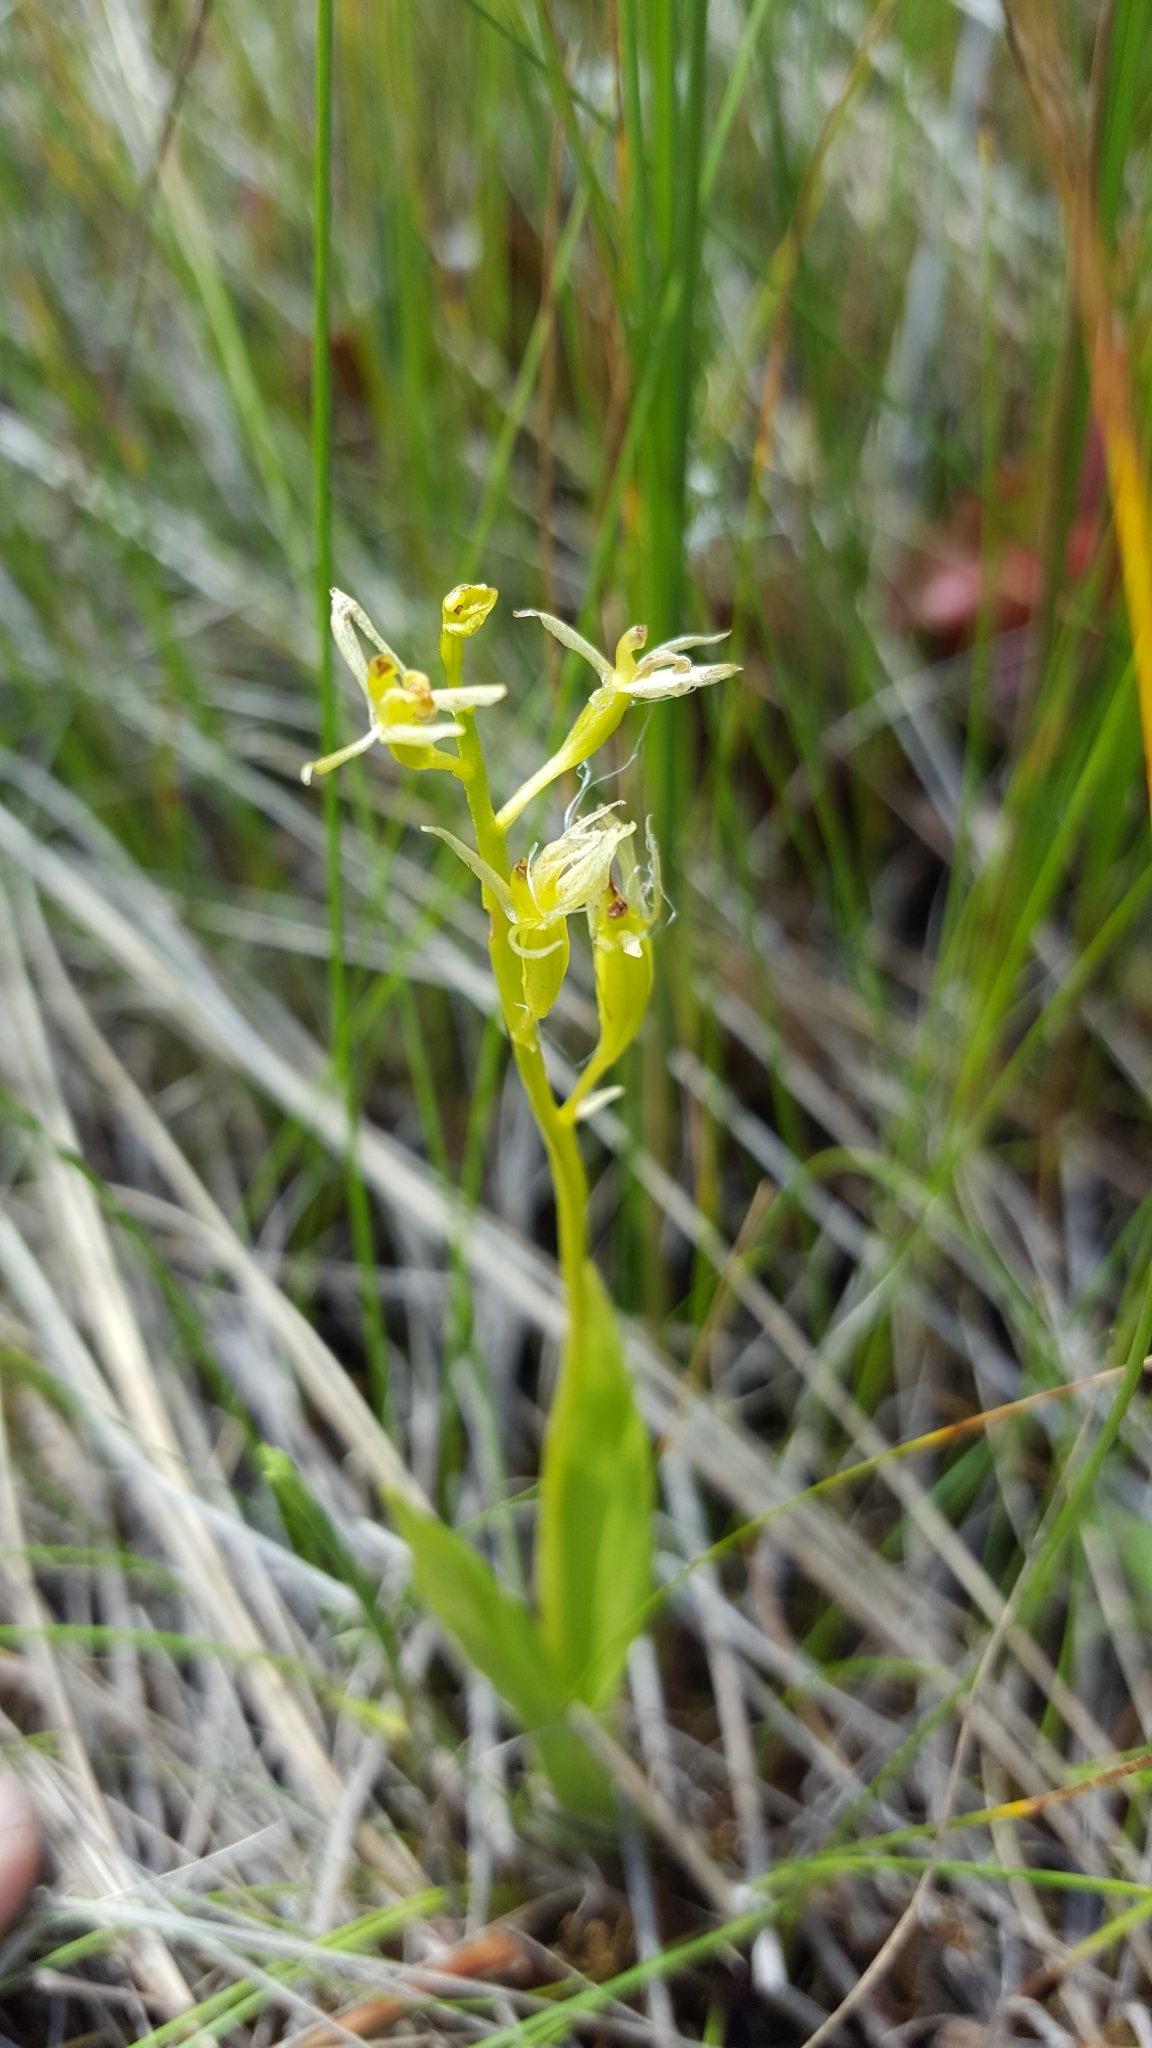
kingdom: Animalia
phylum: Arthropoda
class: Insecta
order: Coleoptera
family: Curculionidae
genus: Liparis
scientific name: Liparis loeselii
